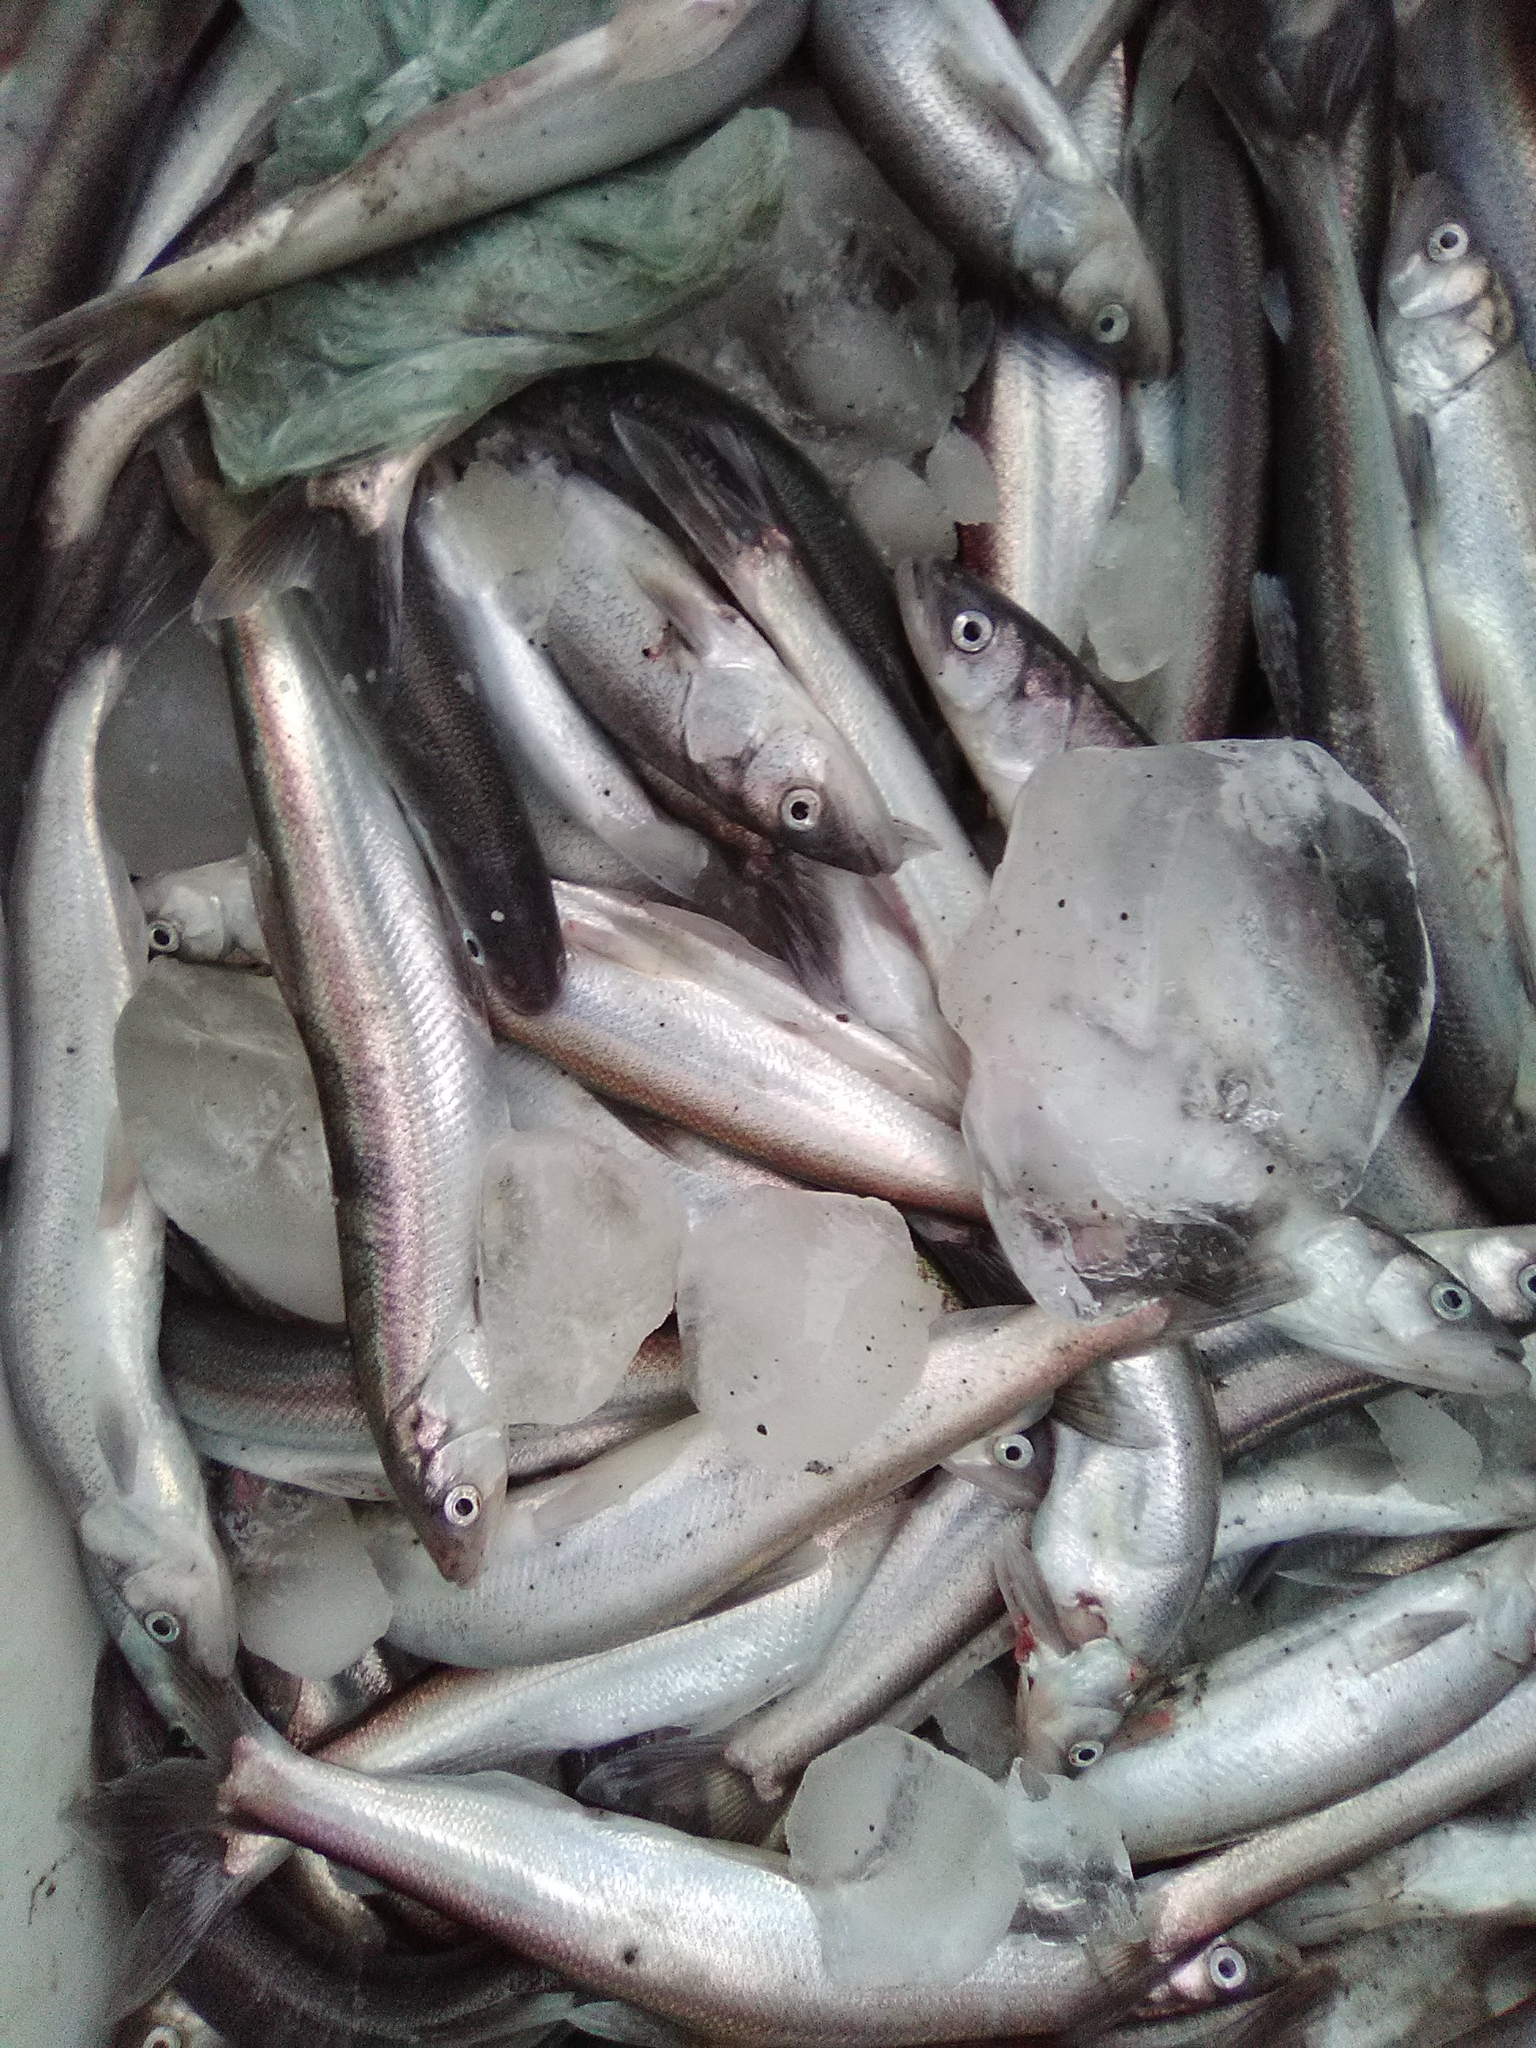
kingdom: Animalia
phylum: Chordata
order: Osmeriformes
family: Osmeridae
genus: Thaleichthys
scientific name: Thaleichthys pacificus
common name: Eulachon
